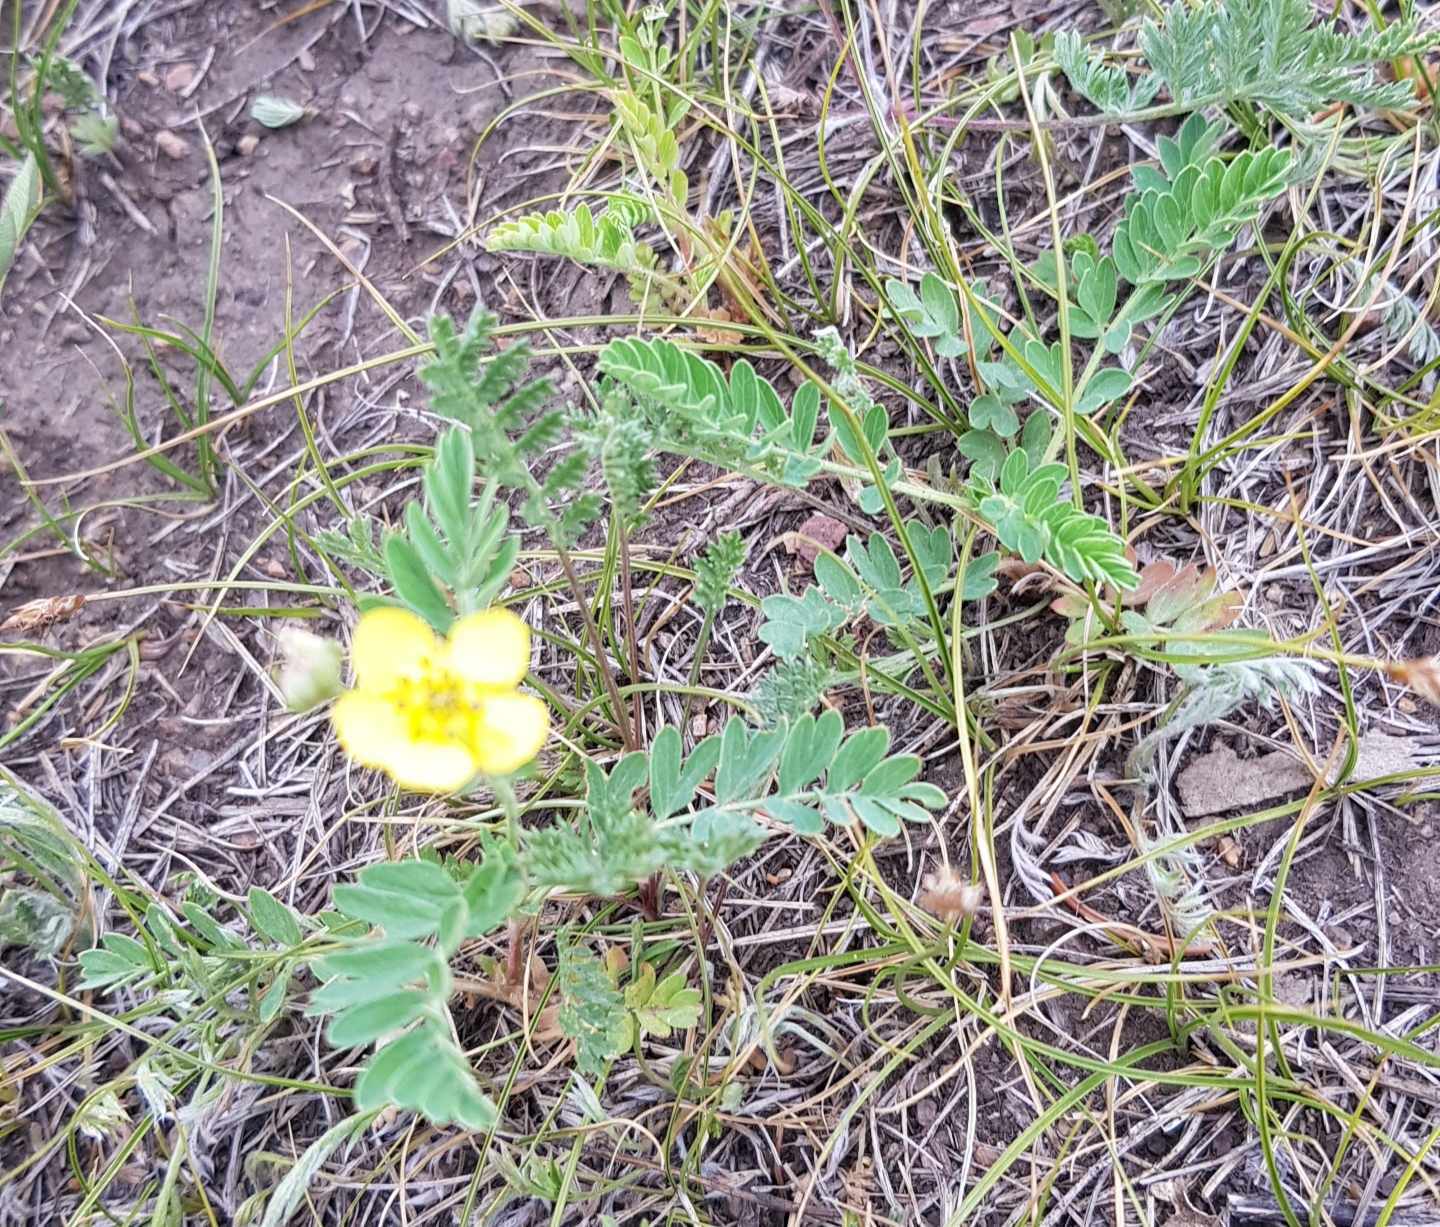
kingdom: Plantae
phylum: Tracheophyta
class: Magnoliopsida
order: Rosales
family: Rosaceae
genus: Sibbaldianthe
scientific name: Sibbaldianthe bifurca
